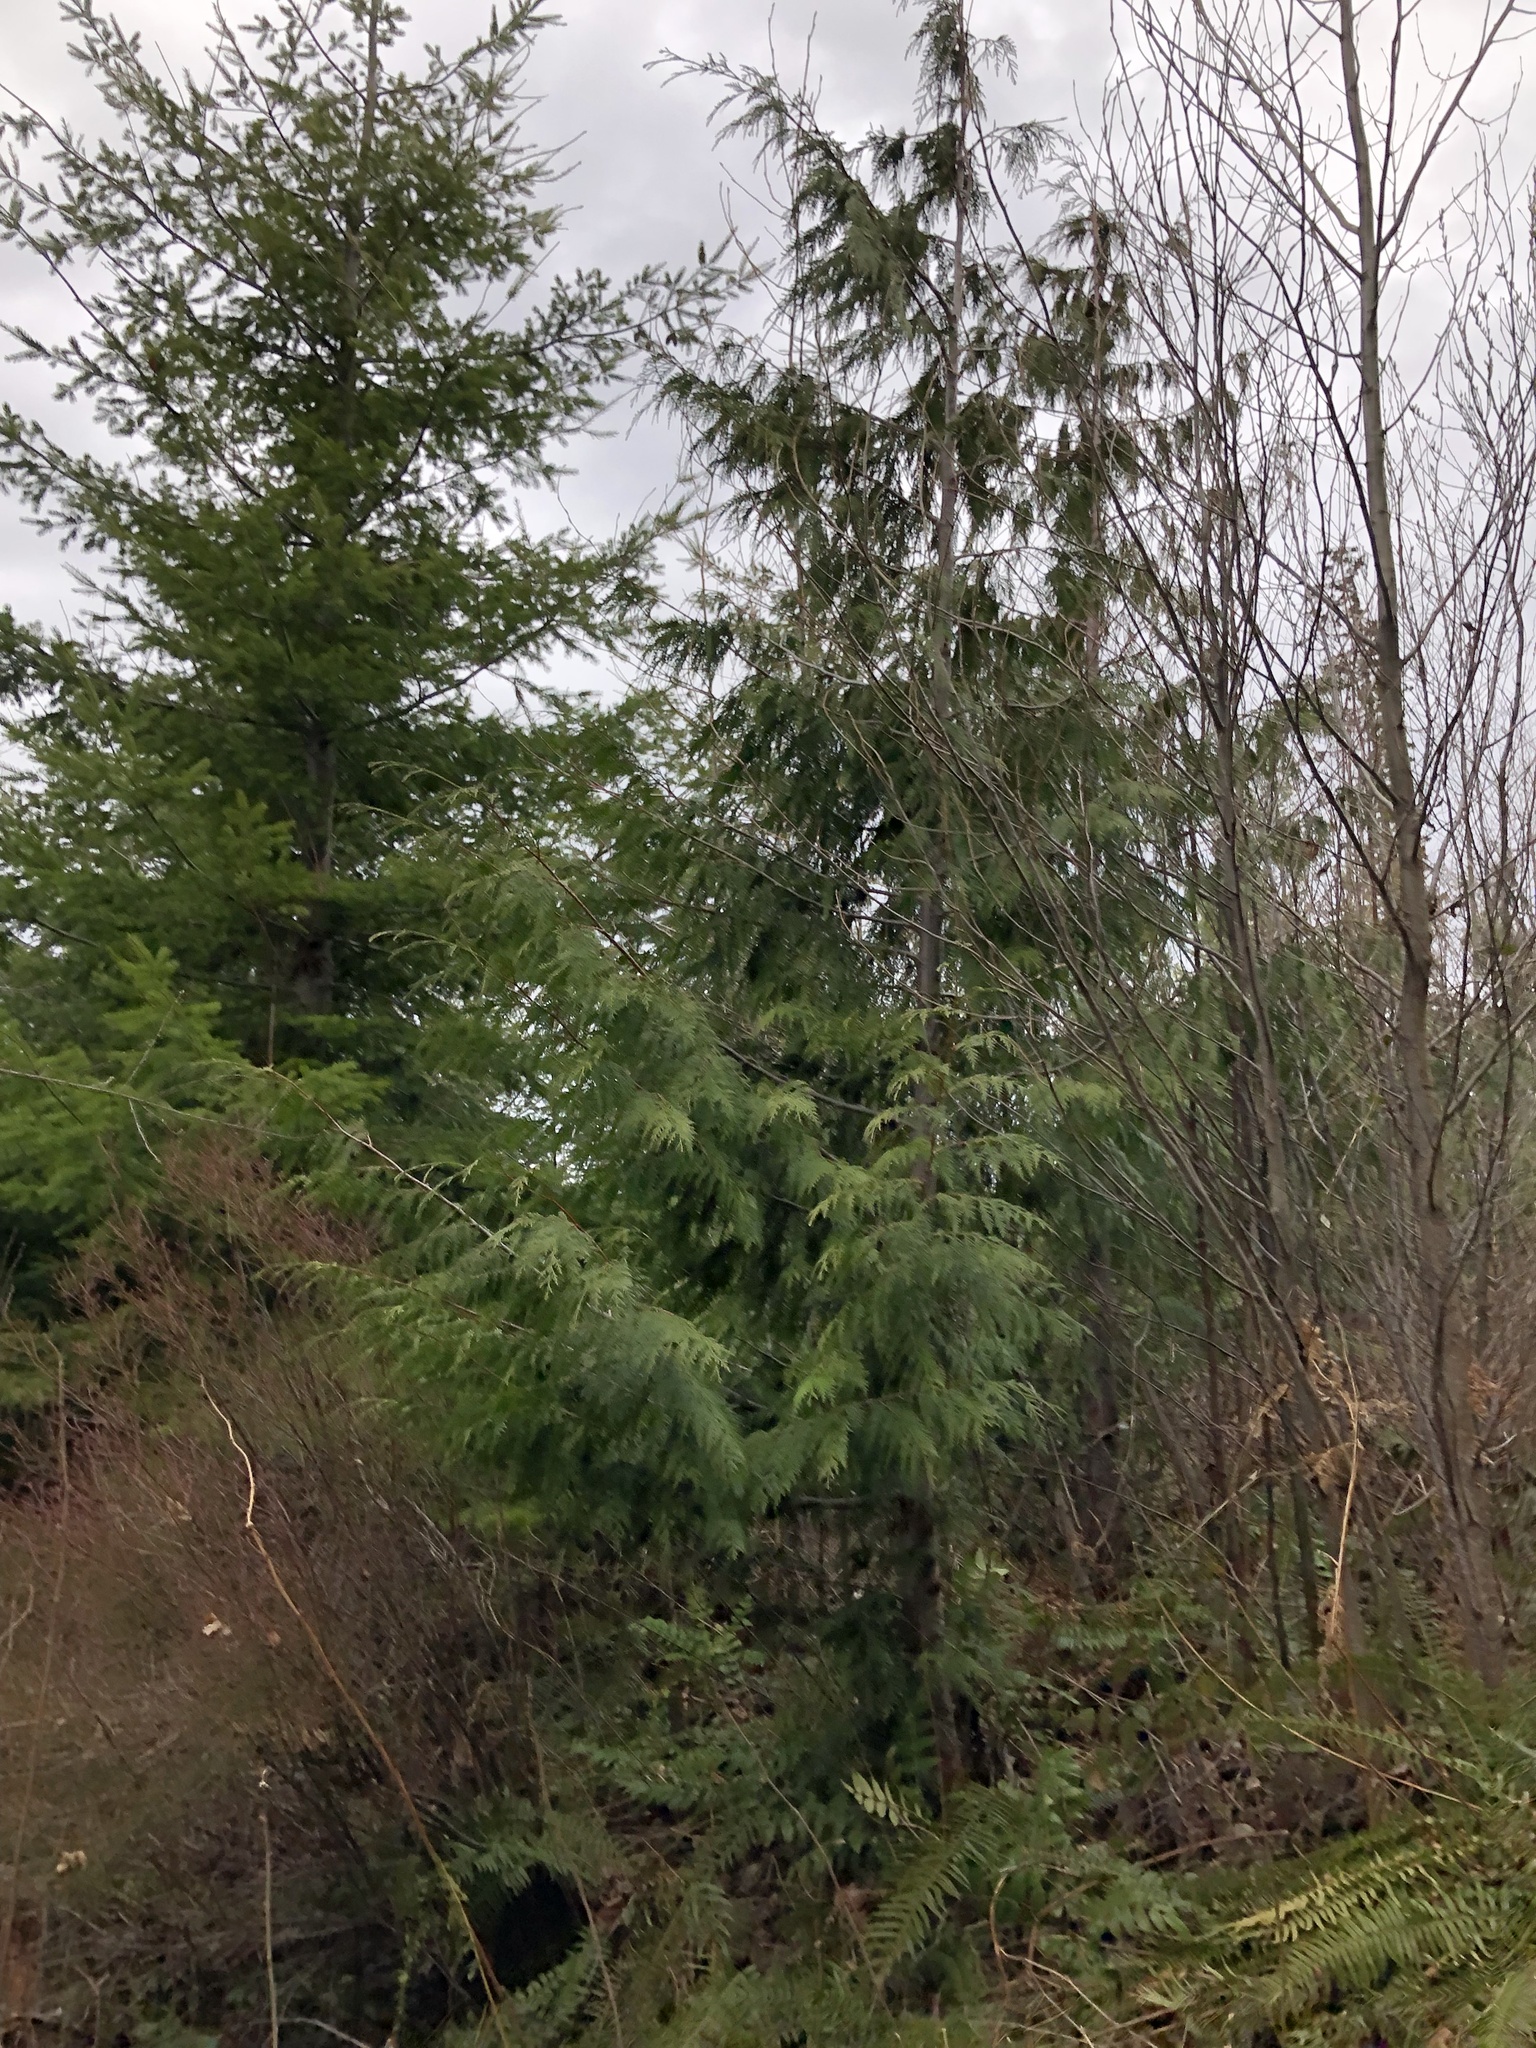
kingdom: Plantae
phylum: Tracheophyta
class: Pinopsida
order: Pinales
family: Cupressaceae
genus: Thuja
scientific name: Thuja plicata
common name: Western red-cedar
